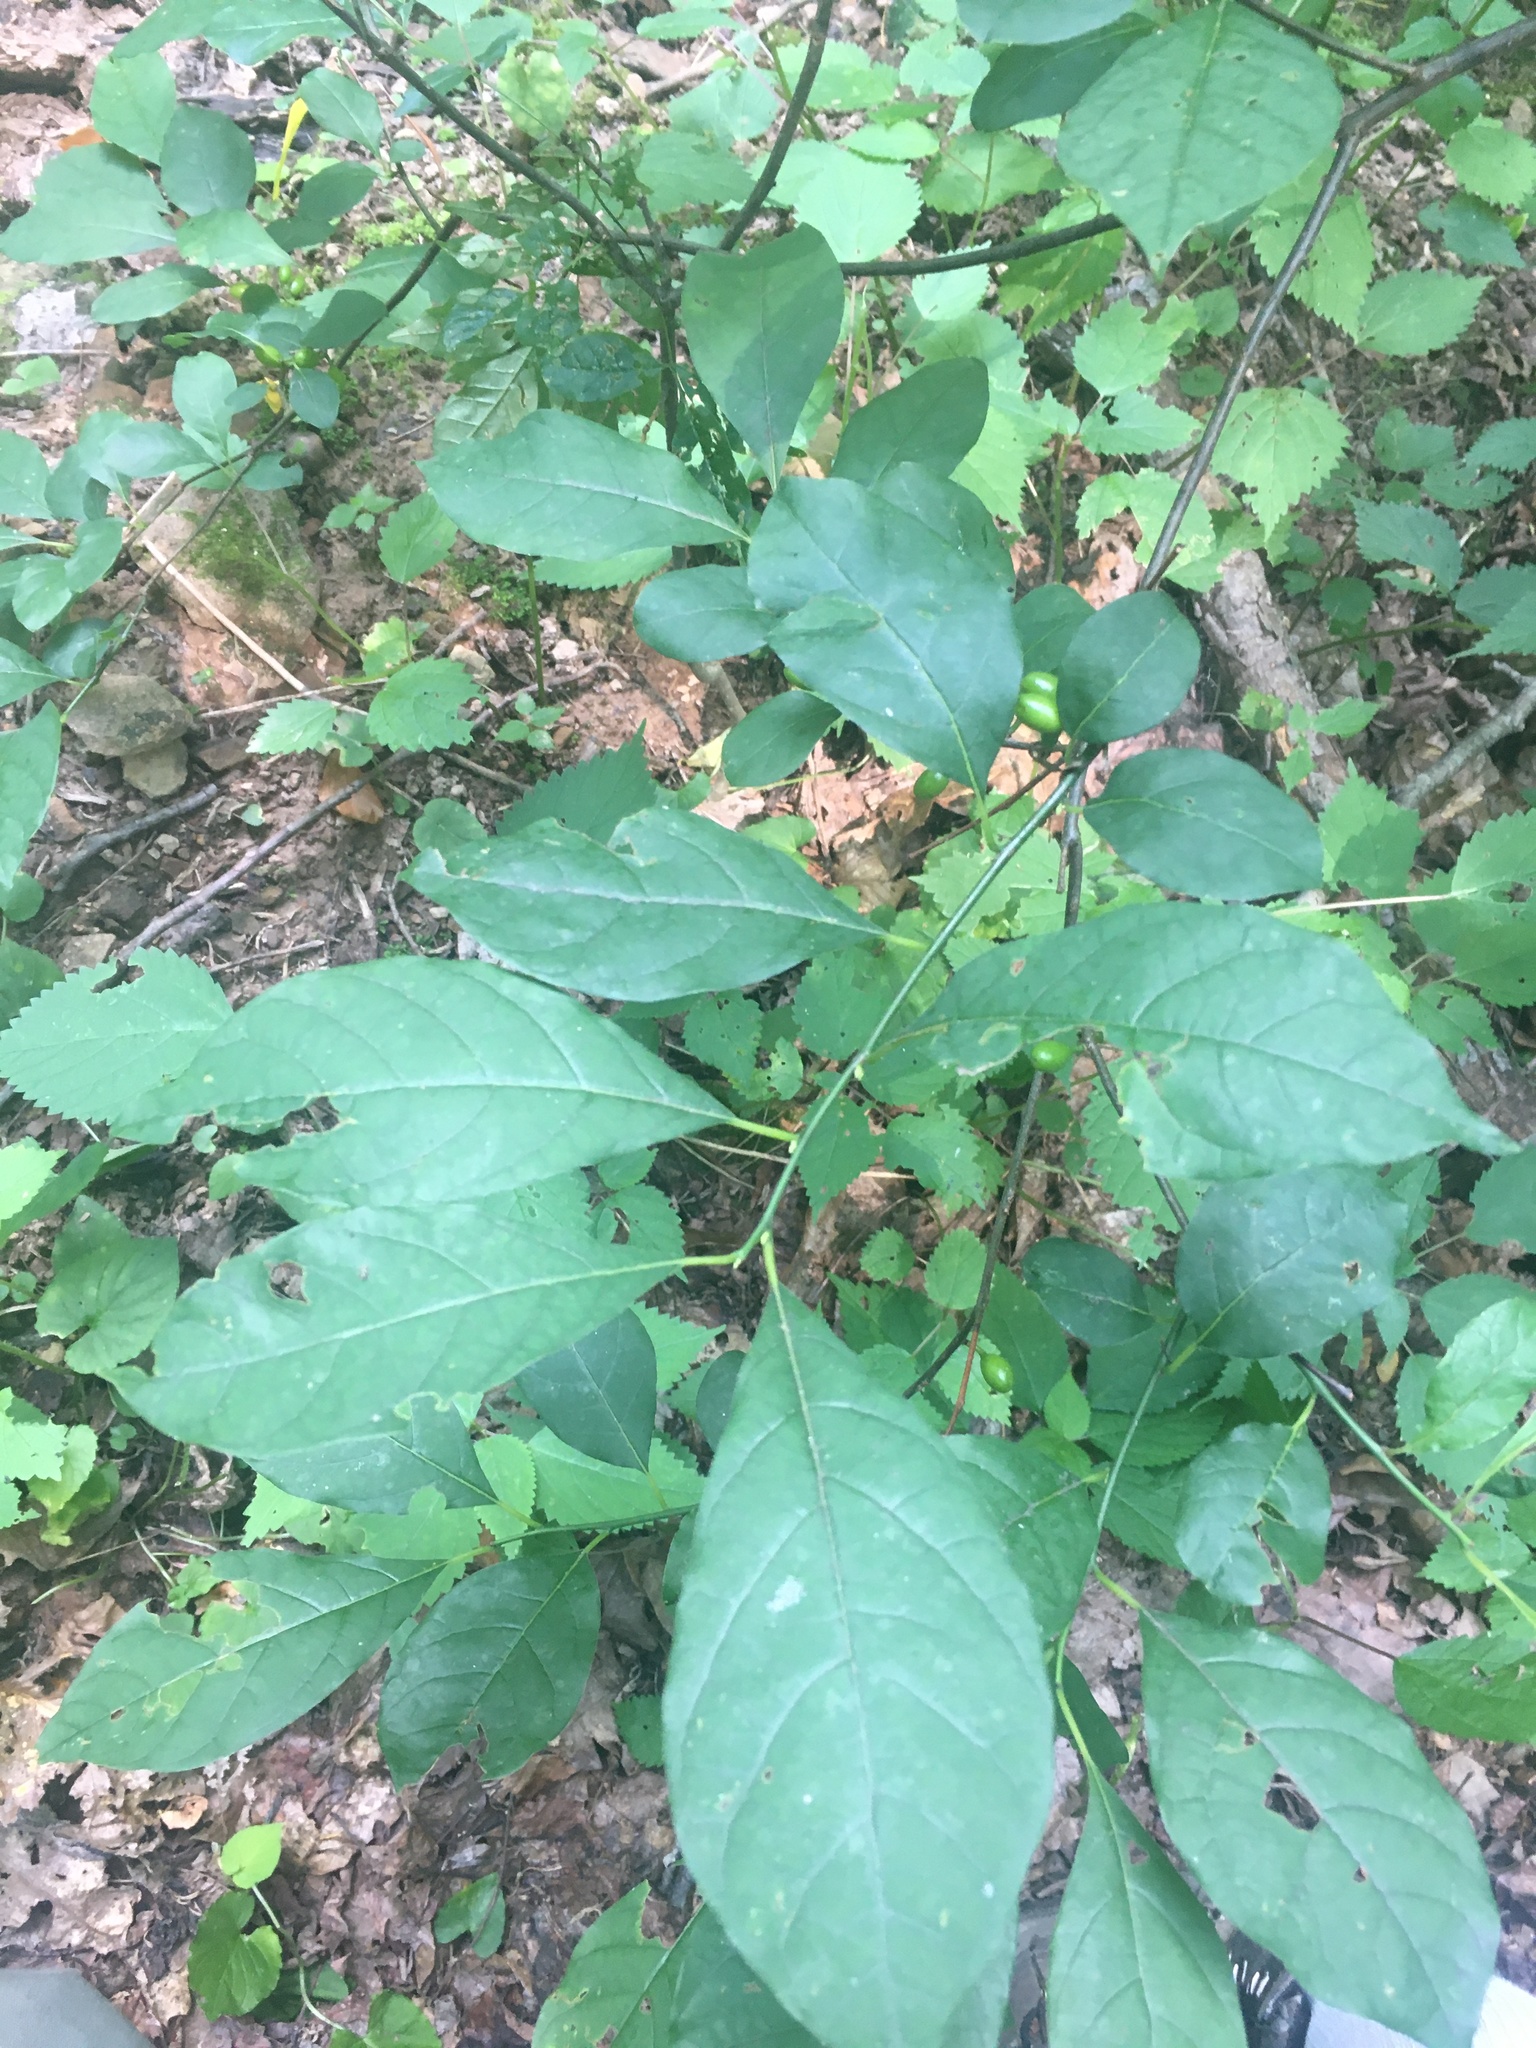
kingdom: Plantae
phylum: Tracheophyta
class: Magnoliopsida
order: Laurales
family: Lauraceae
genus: Lindera
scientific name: Lindera benzoin
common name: Spicebush
